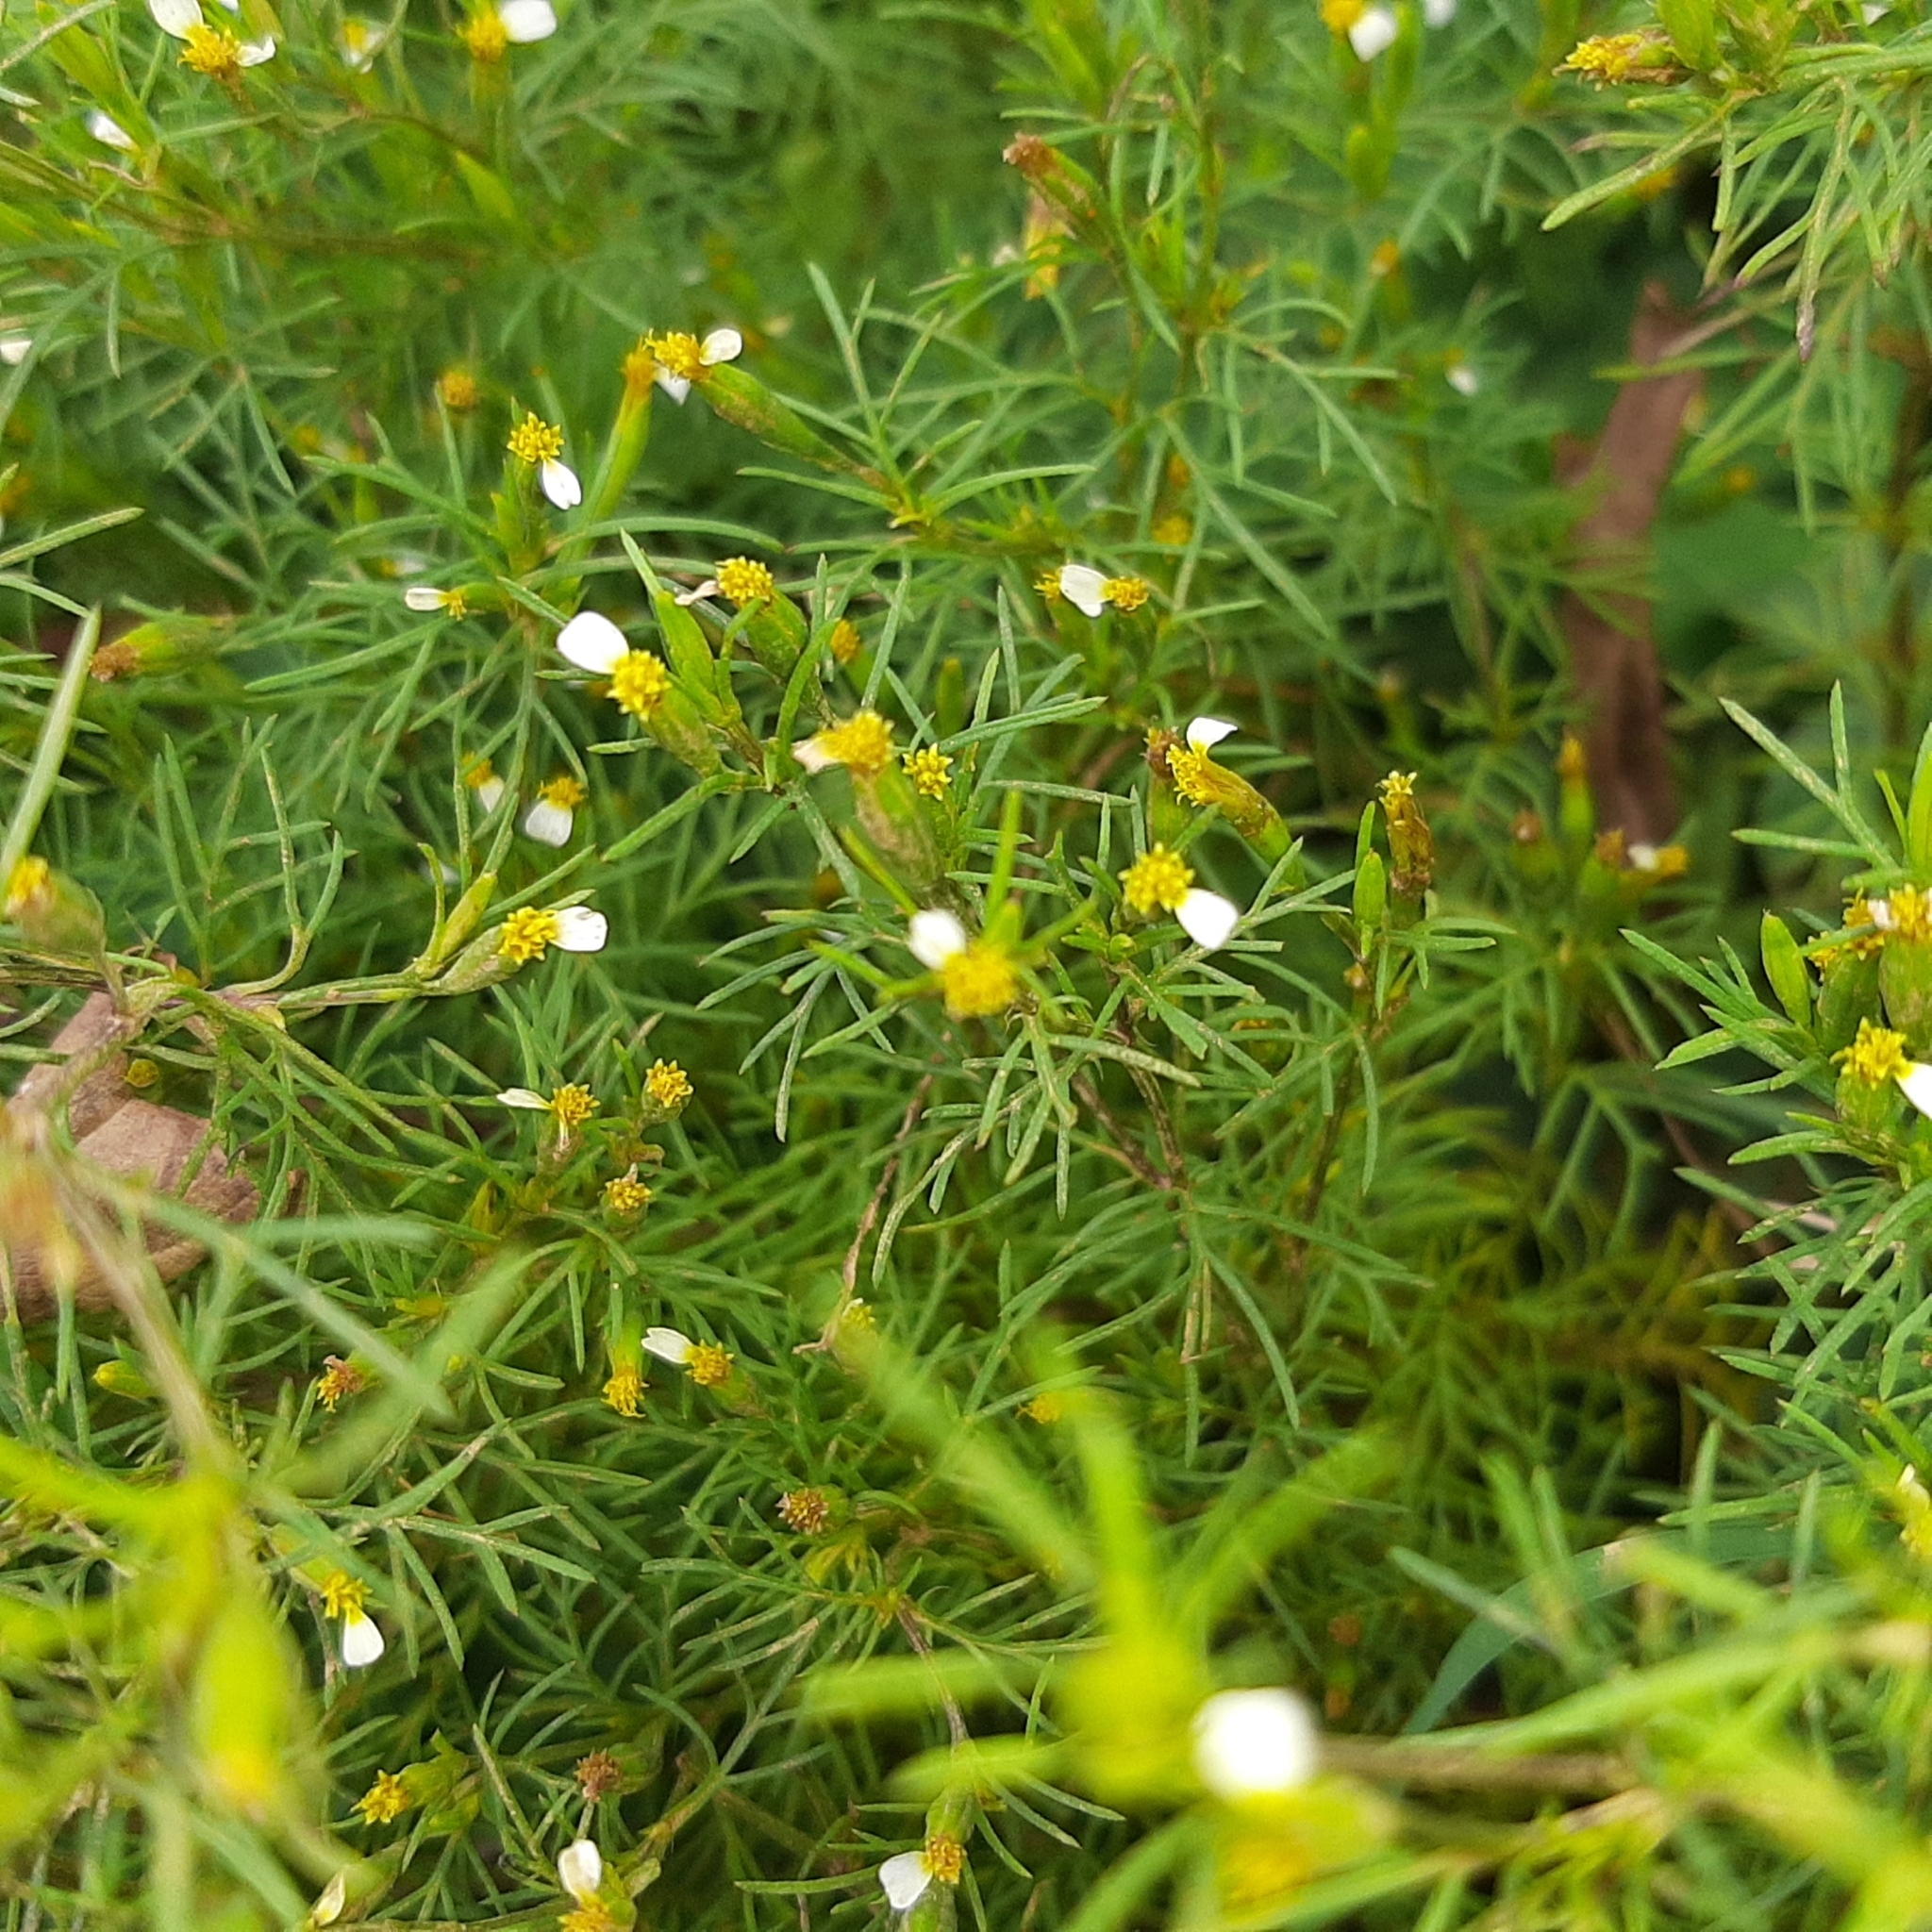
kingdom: Plantae
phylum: Tracheophyta
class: Magnoliopsida
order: Asterales
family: Asteraceae
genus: Tagetes
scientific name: Tagetes filifolia
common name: Lesser marigold
